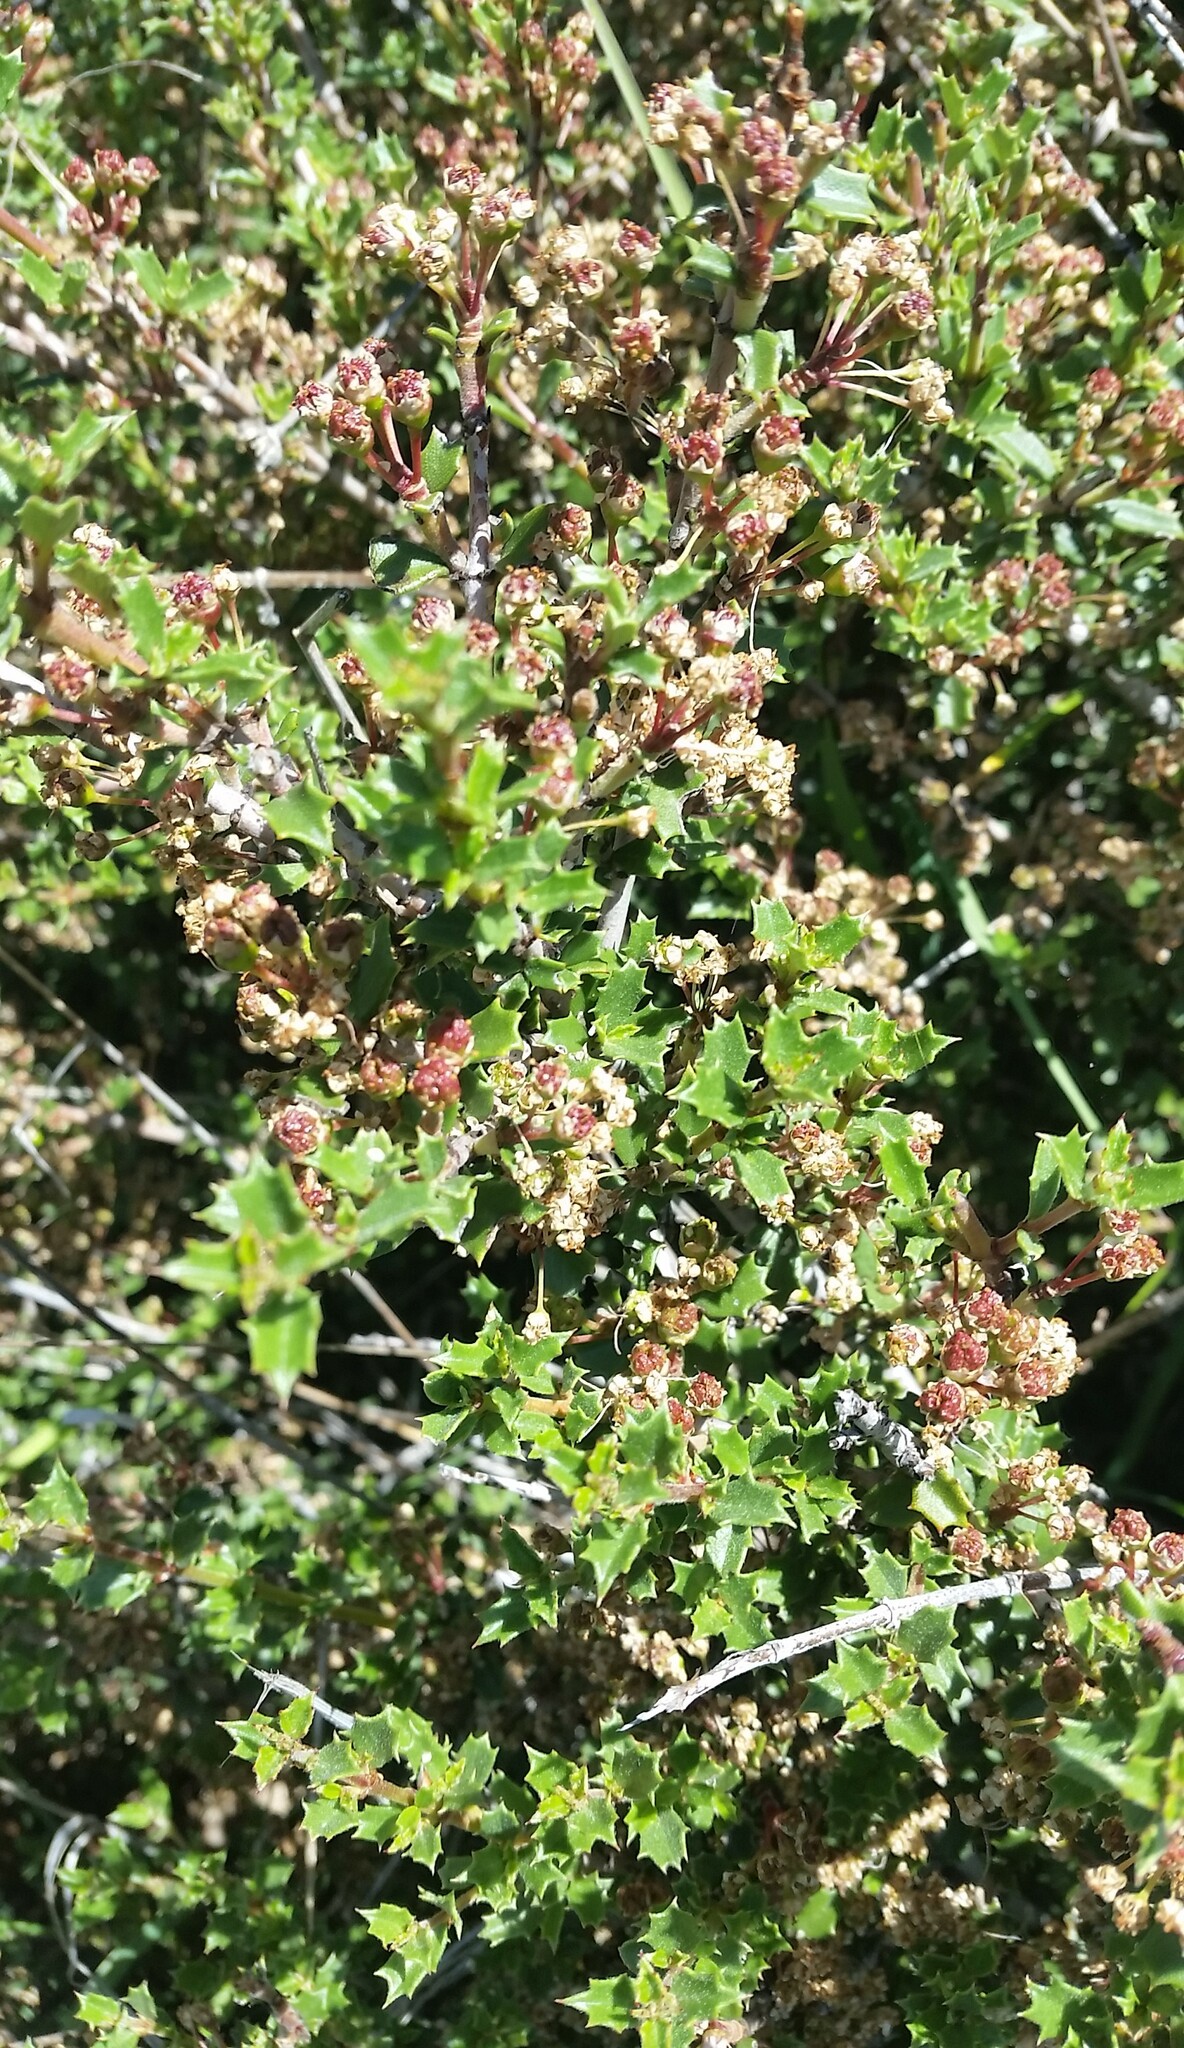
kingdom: Plantae
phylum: Tracheophyta
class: Magnoliopsida
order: Rosales
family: Rhamnaceae
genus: Ceanothus
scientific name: Ceanothus jepsonii
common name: Muskbrush
